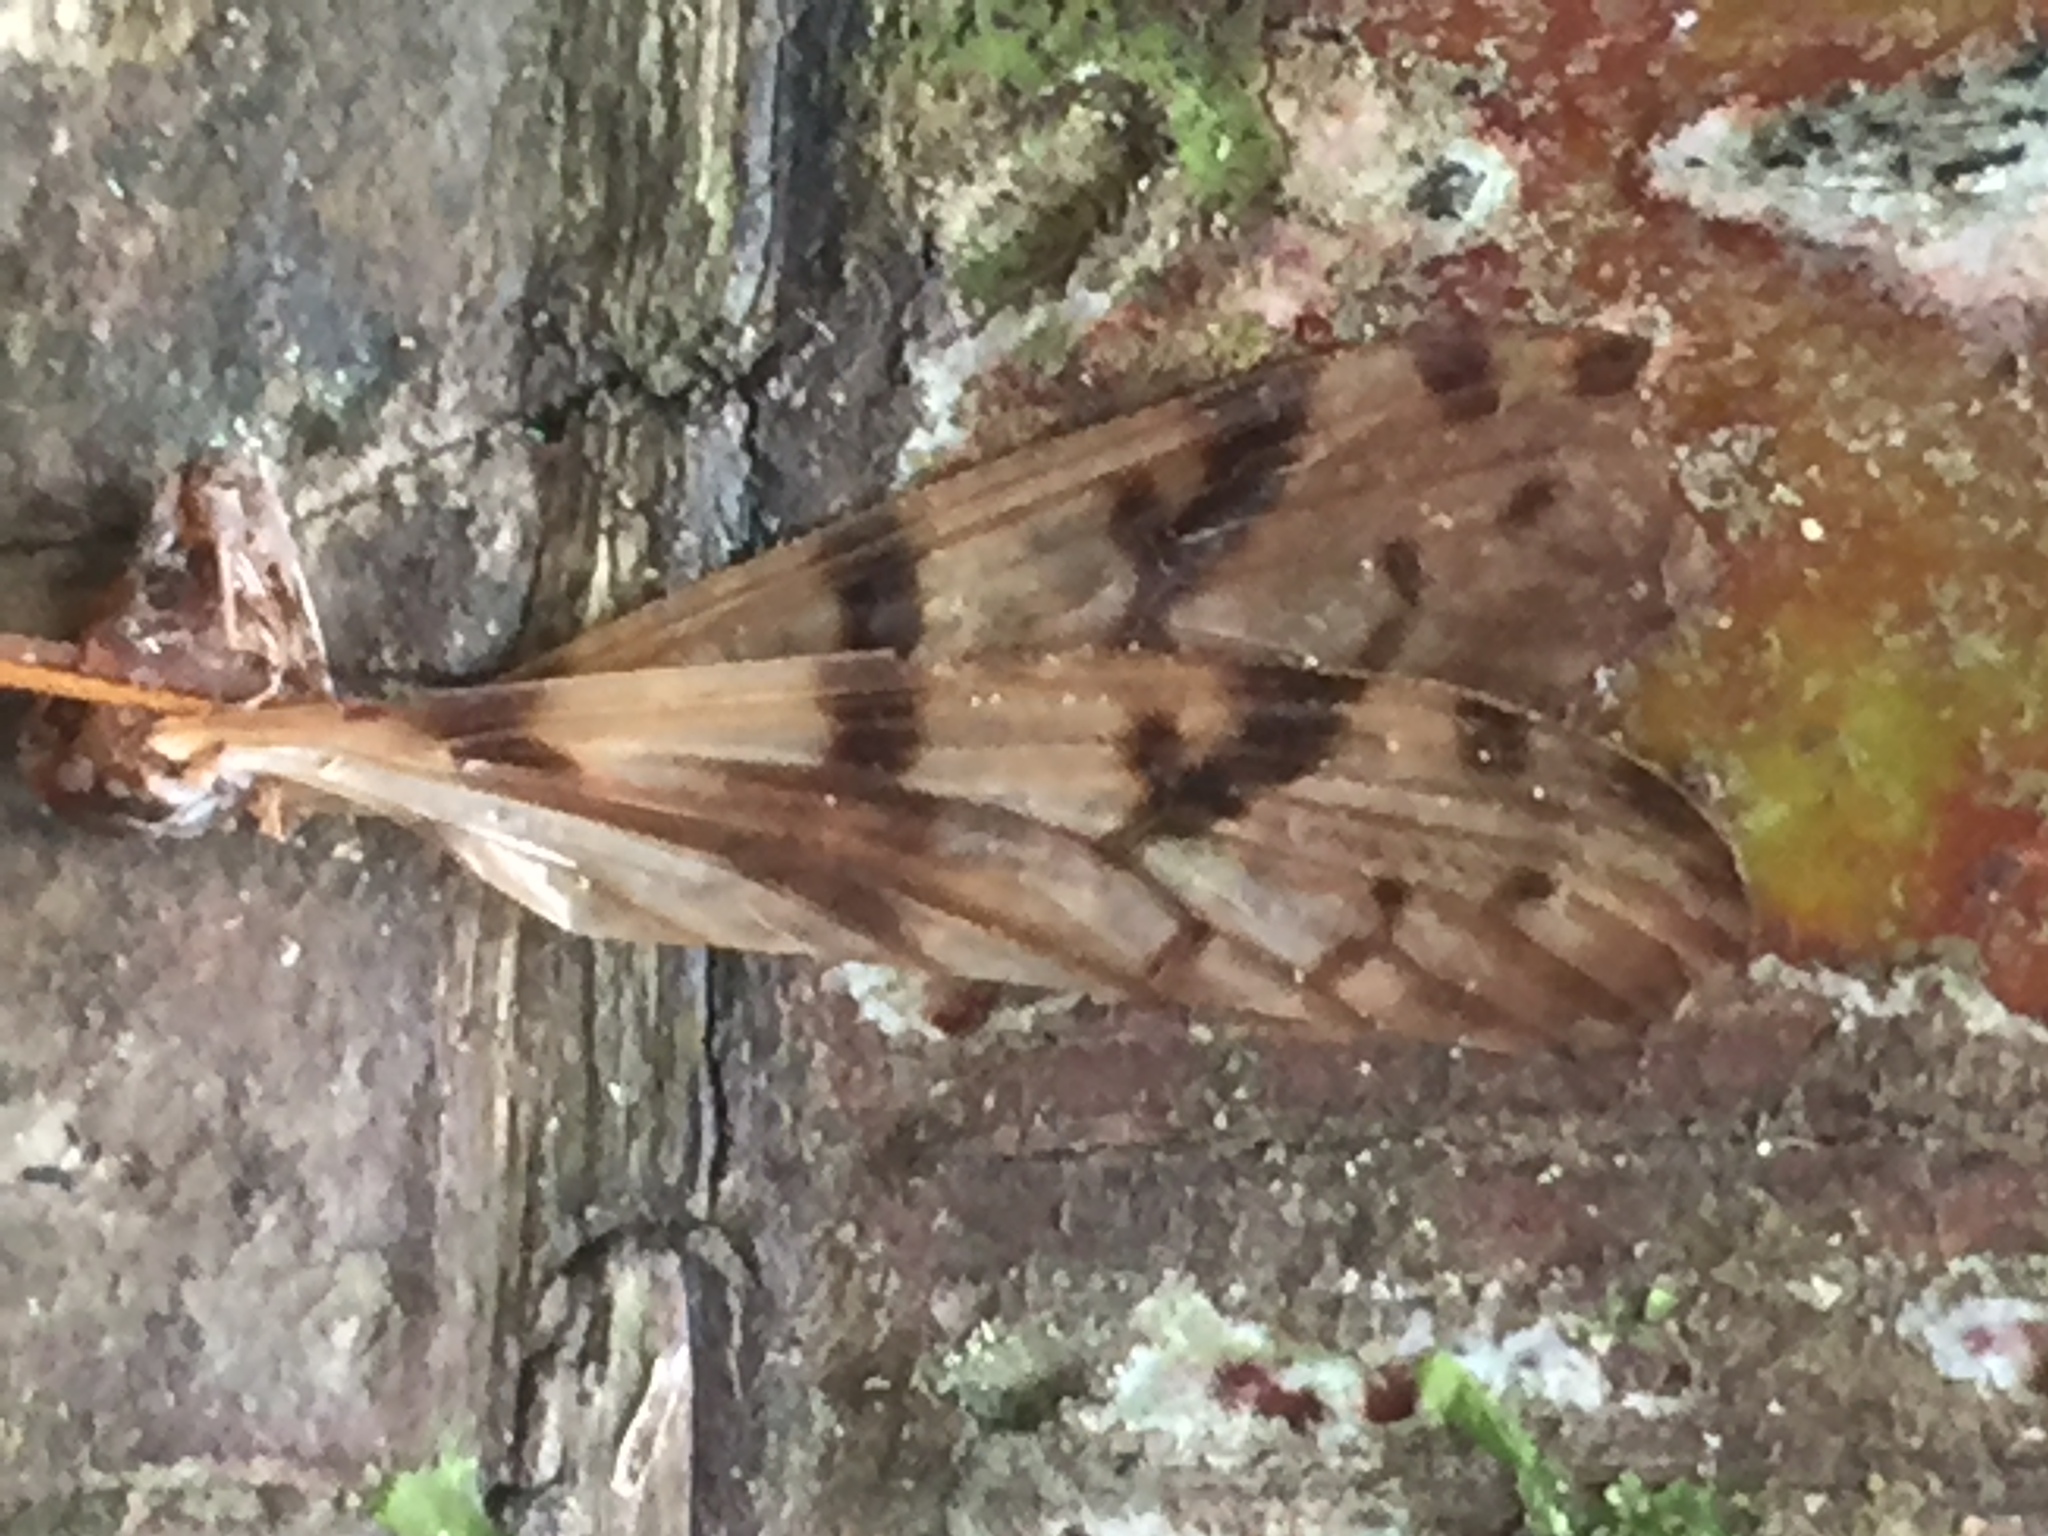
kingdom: Animalia
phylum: Arthropoda
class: Insecta
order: Diptera
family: Limoniidae
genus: Austrolimnophila
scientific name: Austrolimnophila cyatheti
